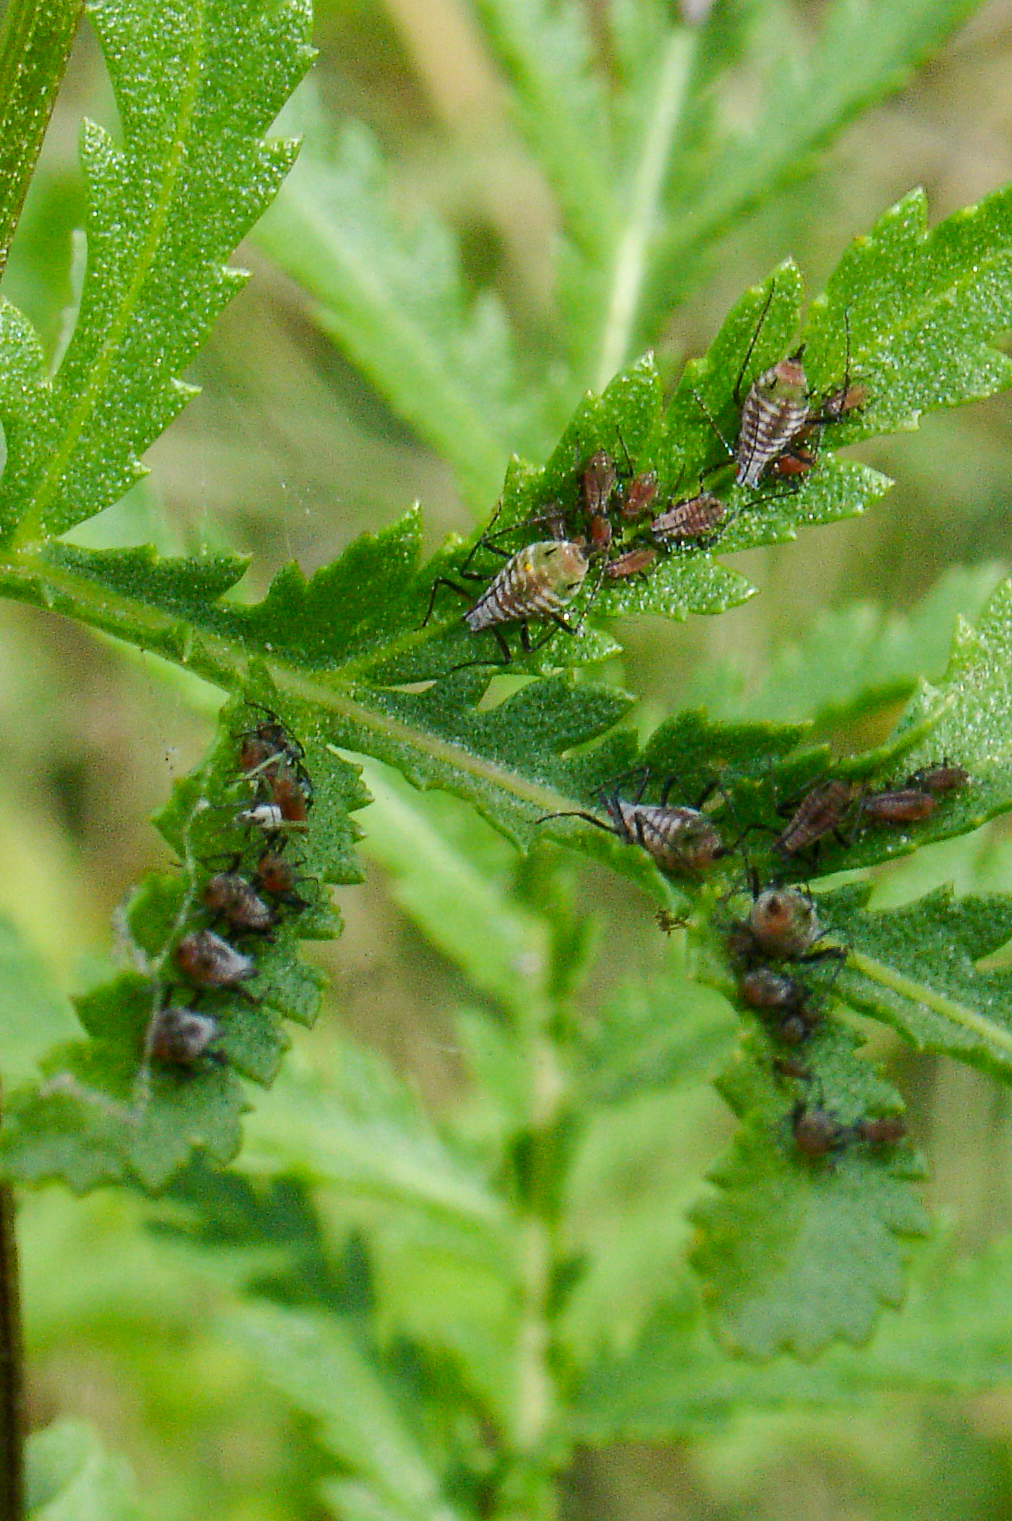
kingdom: Animalia
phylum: Arthropoda
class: Insecta
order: Hemiptera
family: Aphididae
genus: Macrosiphoniella
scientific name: Macrosiphoniella tanacetaria
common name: Aphid
